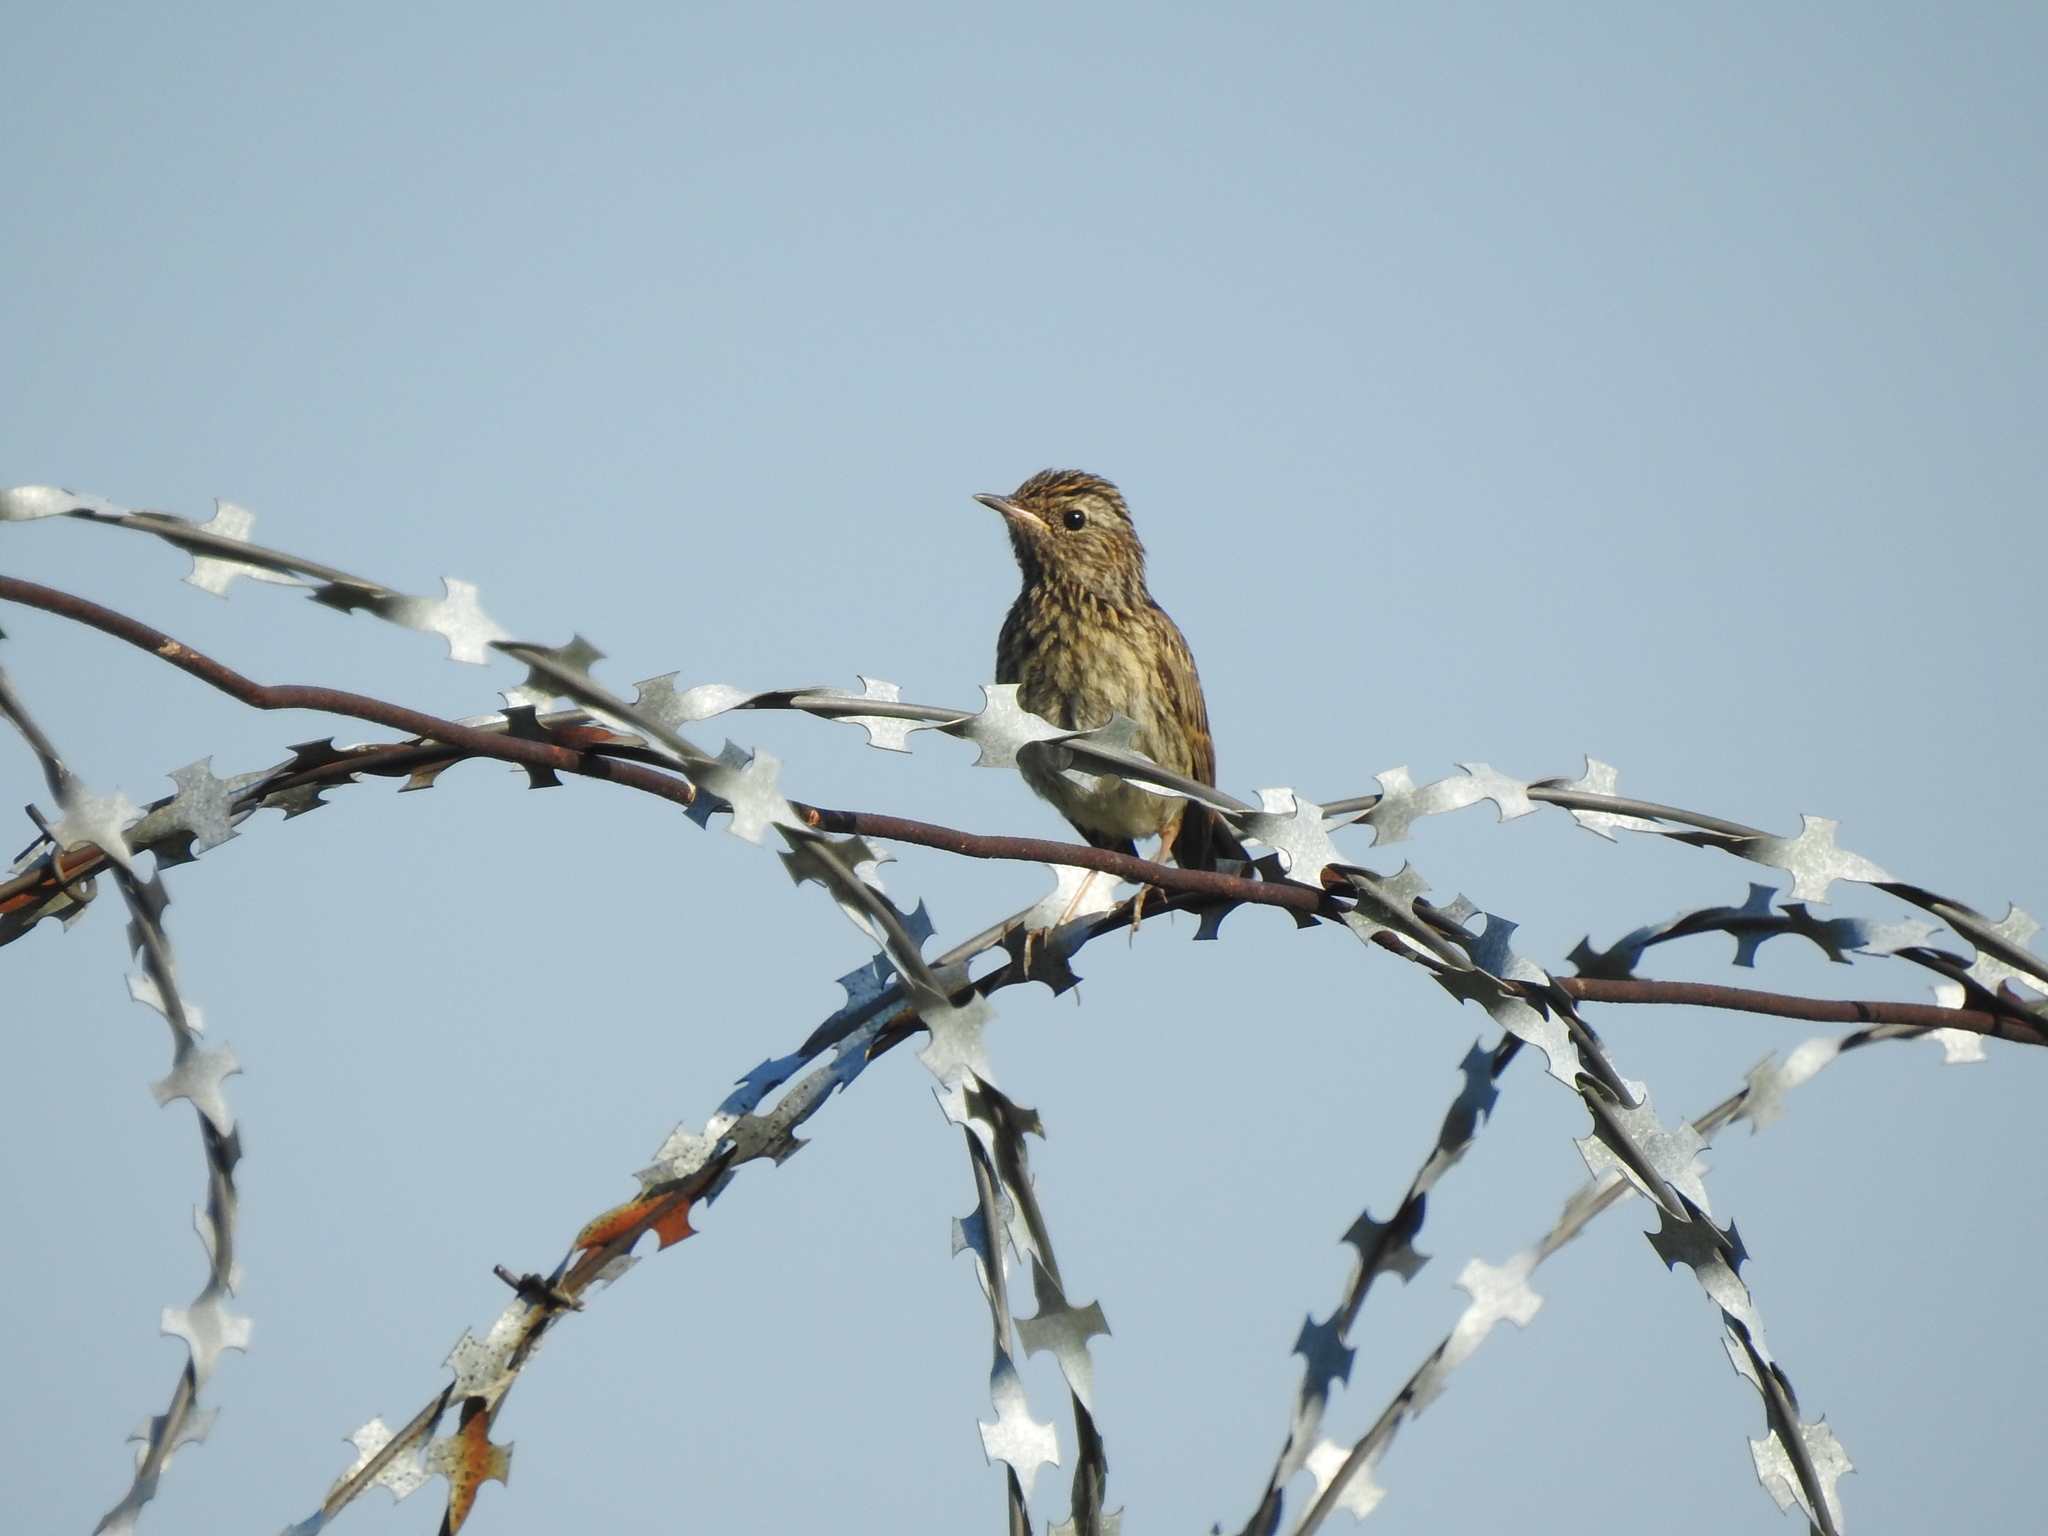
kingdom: Animalia
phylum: Chordata
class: Aves
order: Passeriformes
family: Muscicapidae
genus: Luscinia
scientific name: Luscinia svecica
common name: Bluethroat
